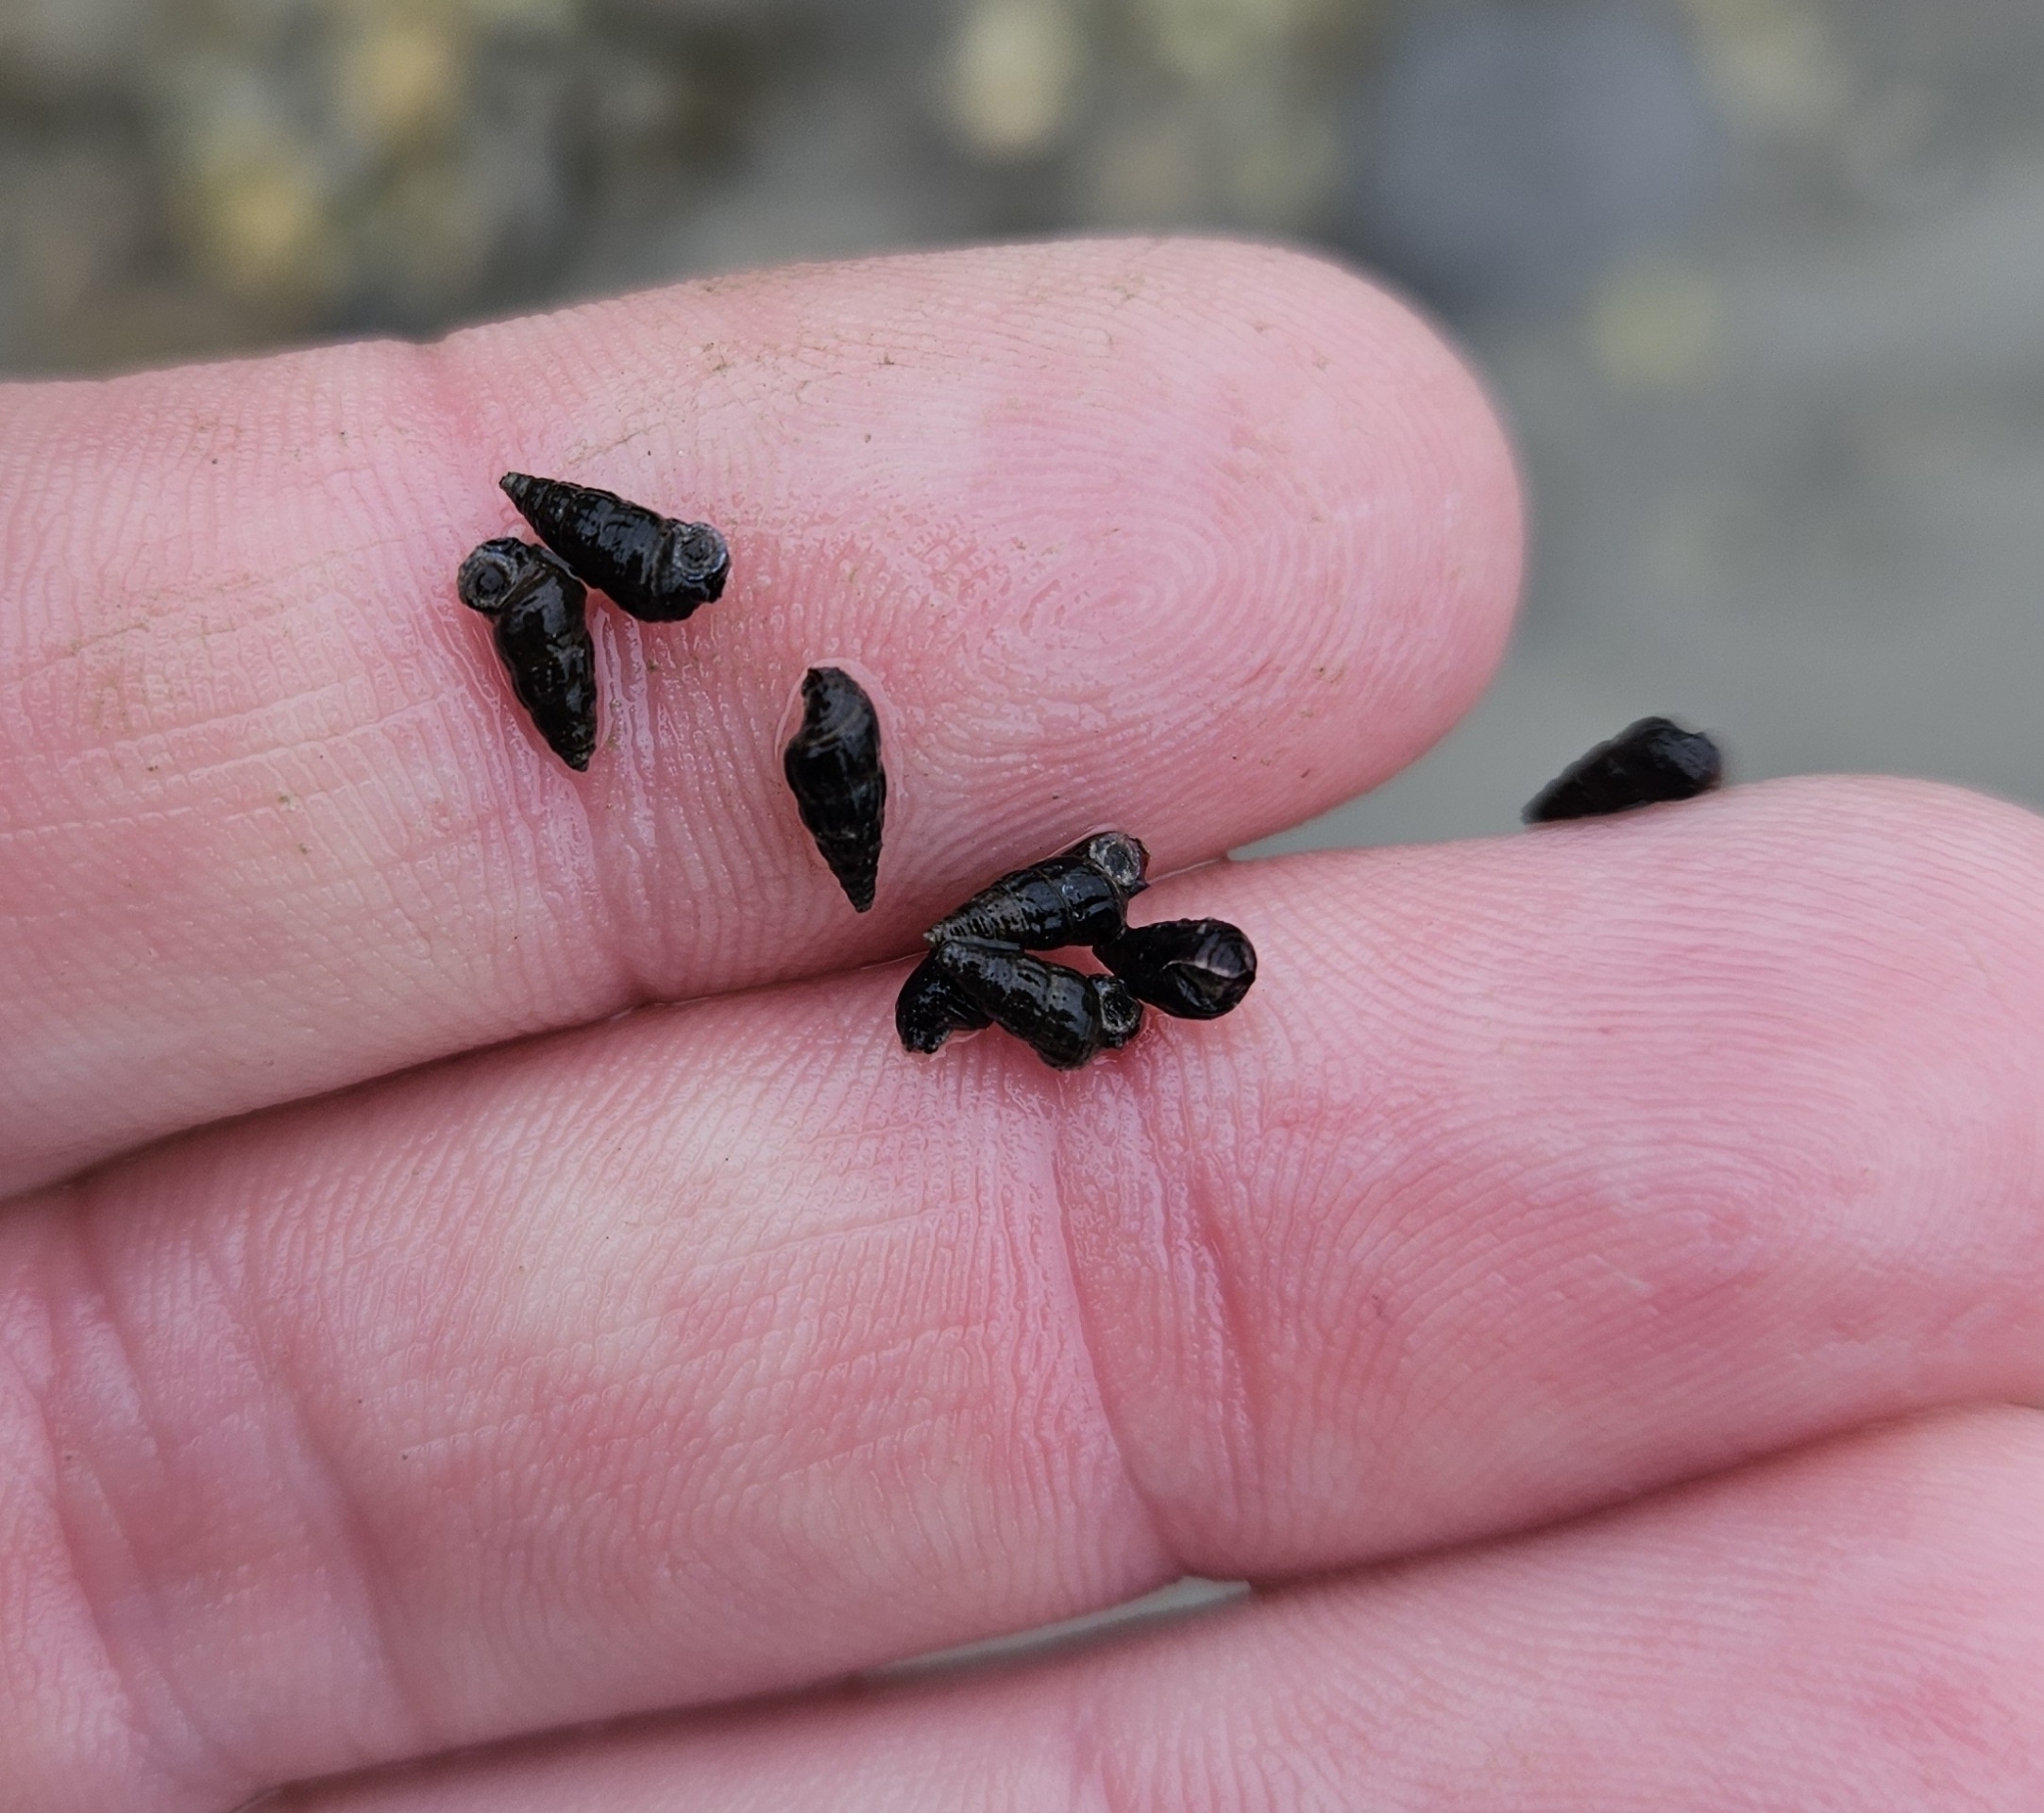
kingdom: Animalia
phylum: Mollusca
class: Gastropoda
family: Batillariidae
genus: Zeacumantus
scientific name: Zeacumantus subcarinatus
